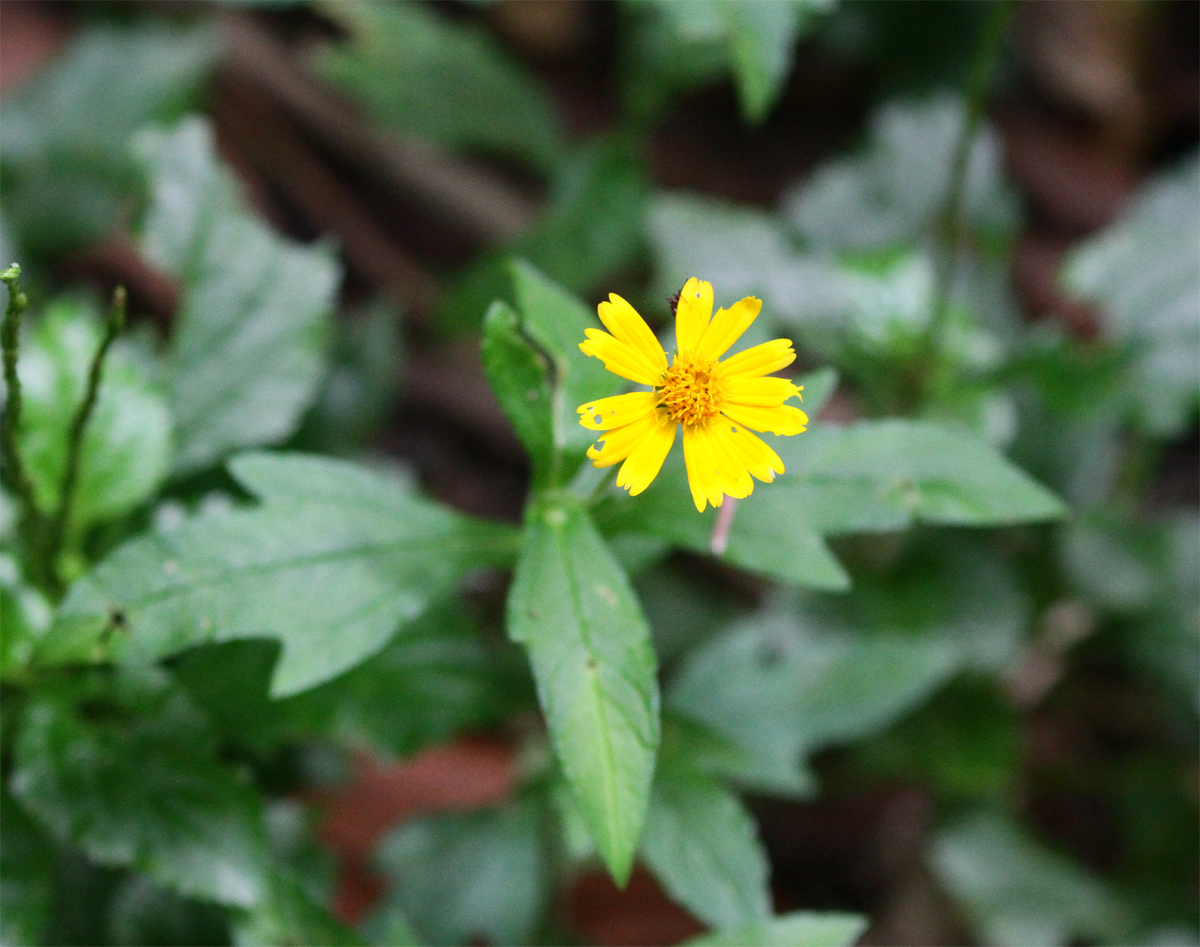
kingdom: Plantae
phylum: Tracheophyta
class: Magnoliopsida
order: Asterales
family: Asteraceae
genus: Sphagneticola
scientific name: Sphagneticola trilobata
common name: Bay biscayne creeping-oxeye
